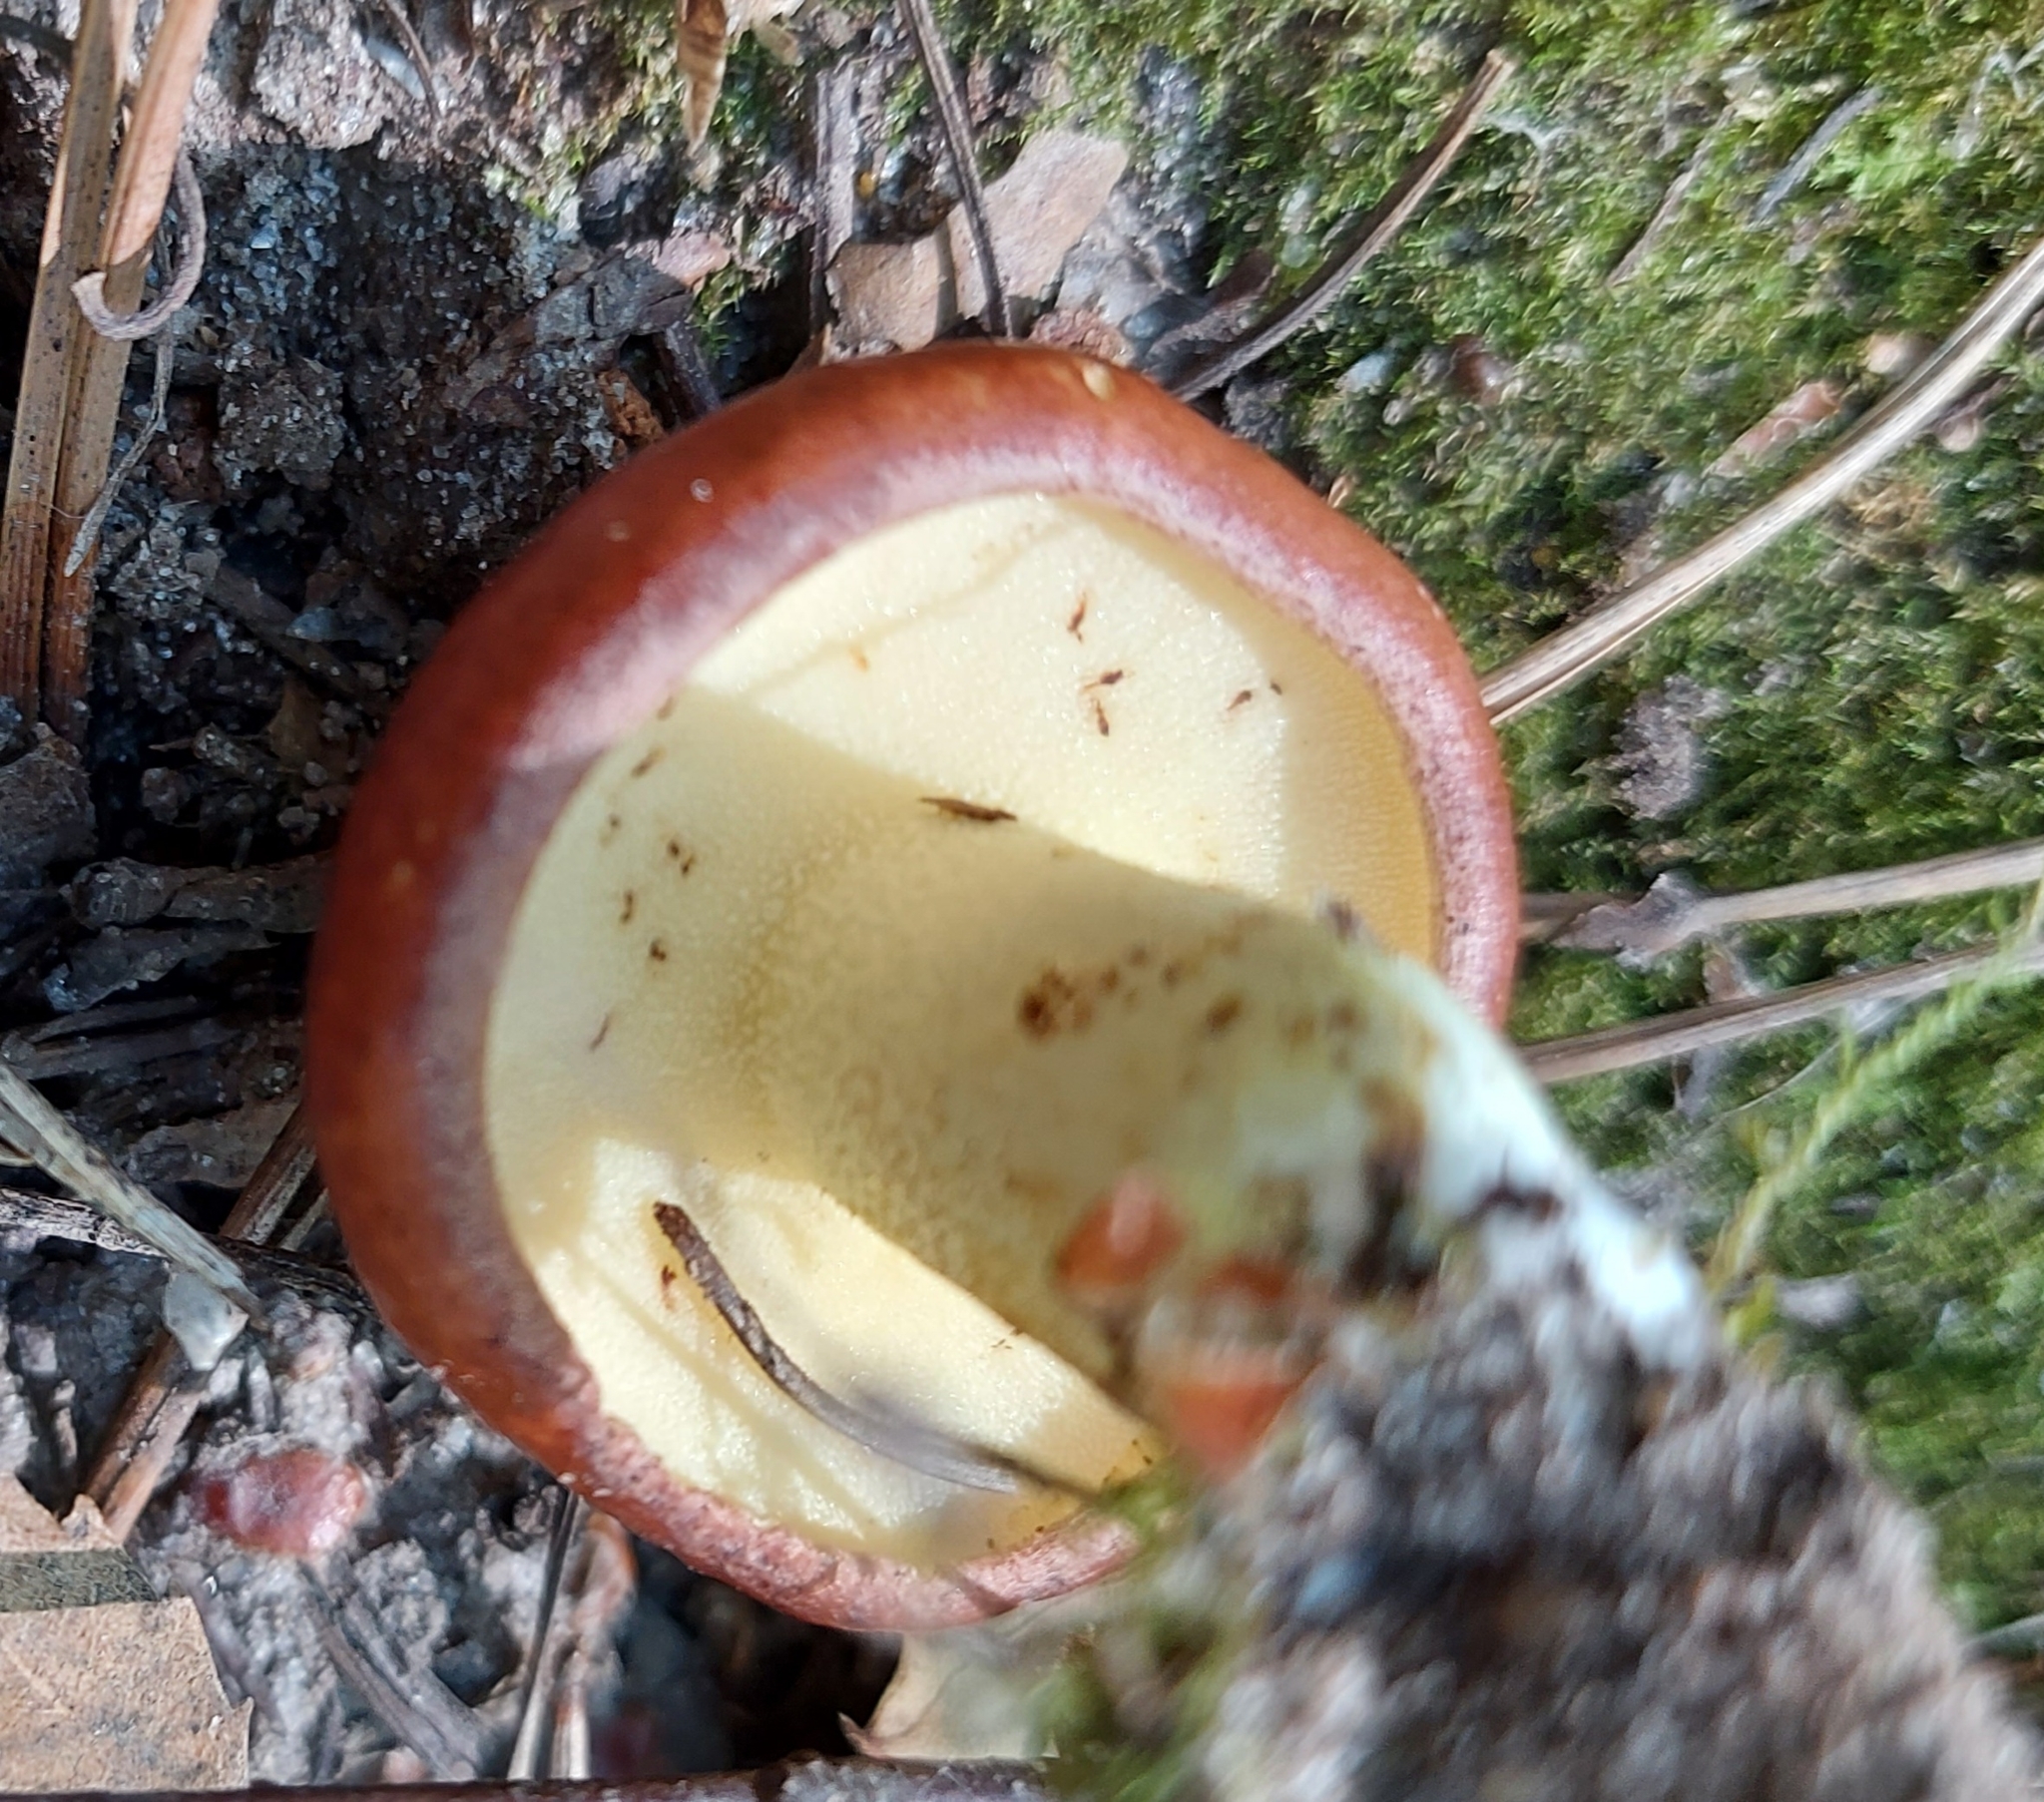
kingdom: Fungi
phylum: Basidiomycota
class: Agaricomycetes
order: Boletales
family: Suillaceae
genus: Suillus
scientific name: Suillus granulatus
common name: Weeping bolete
